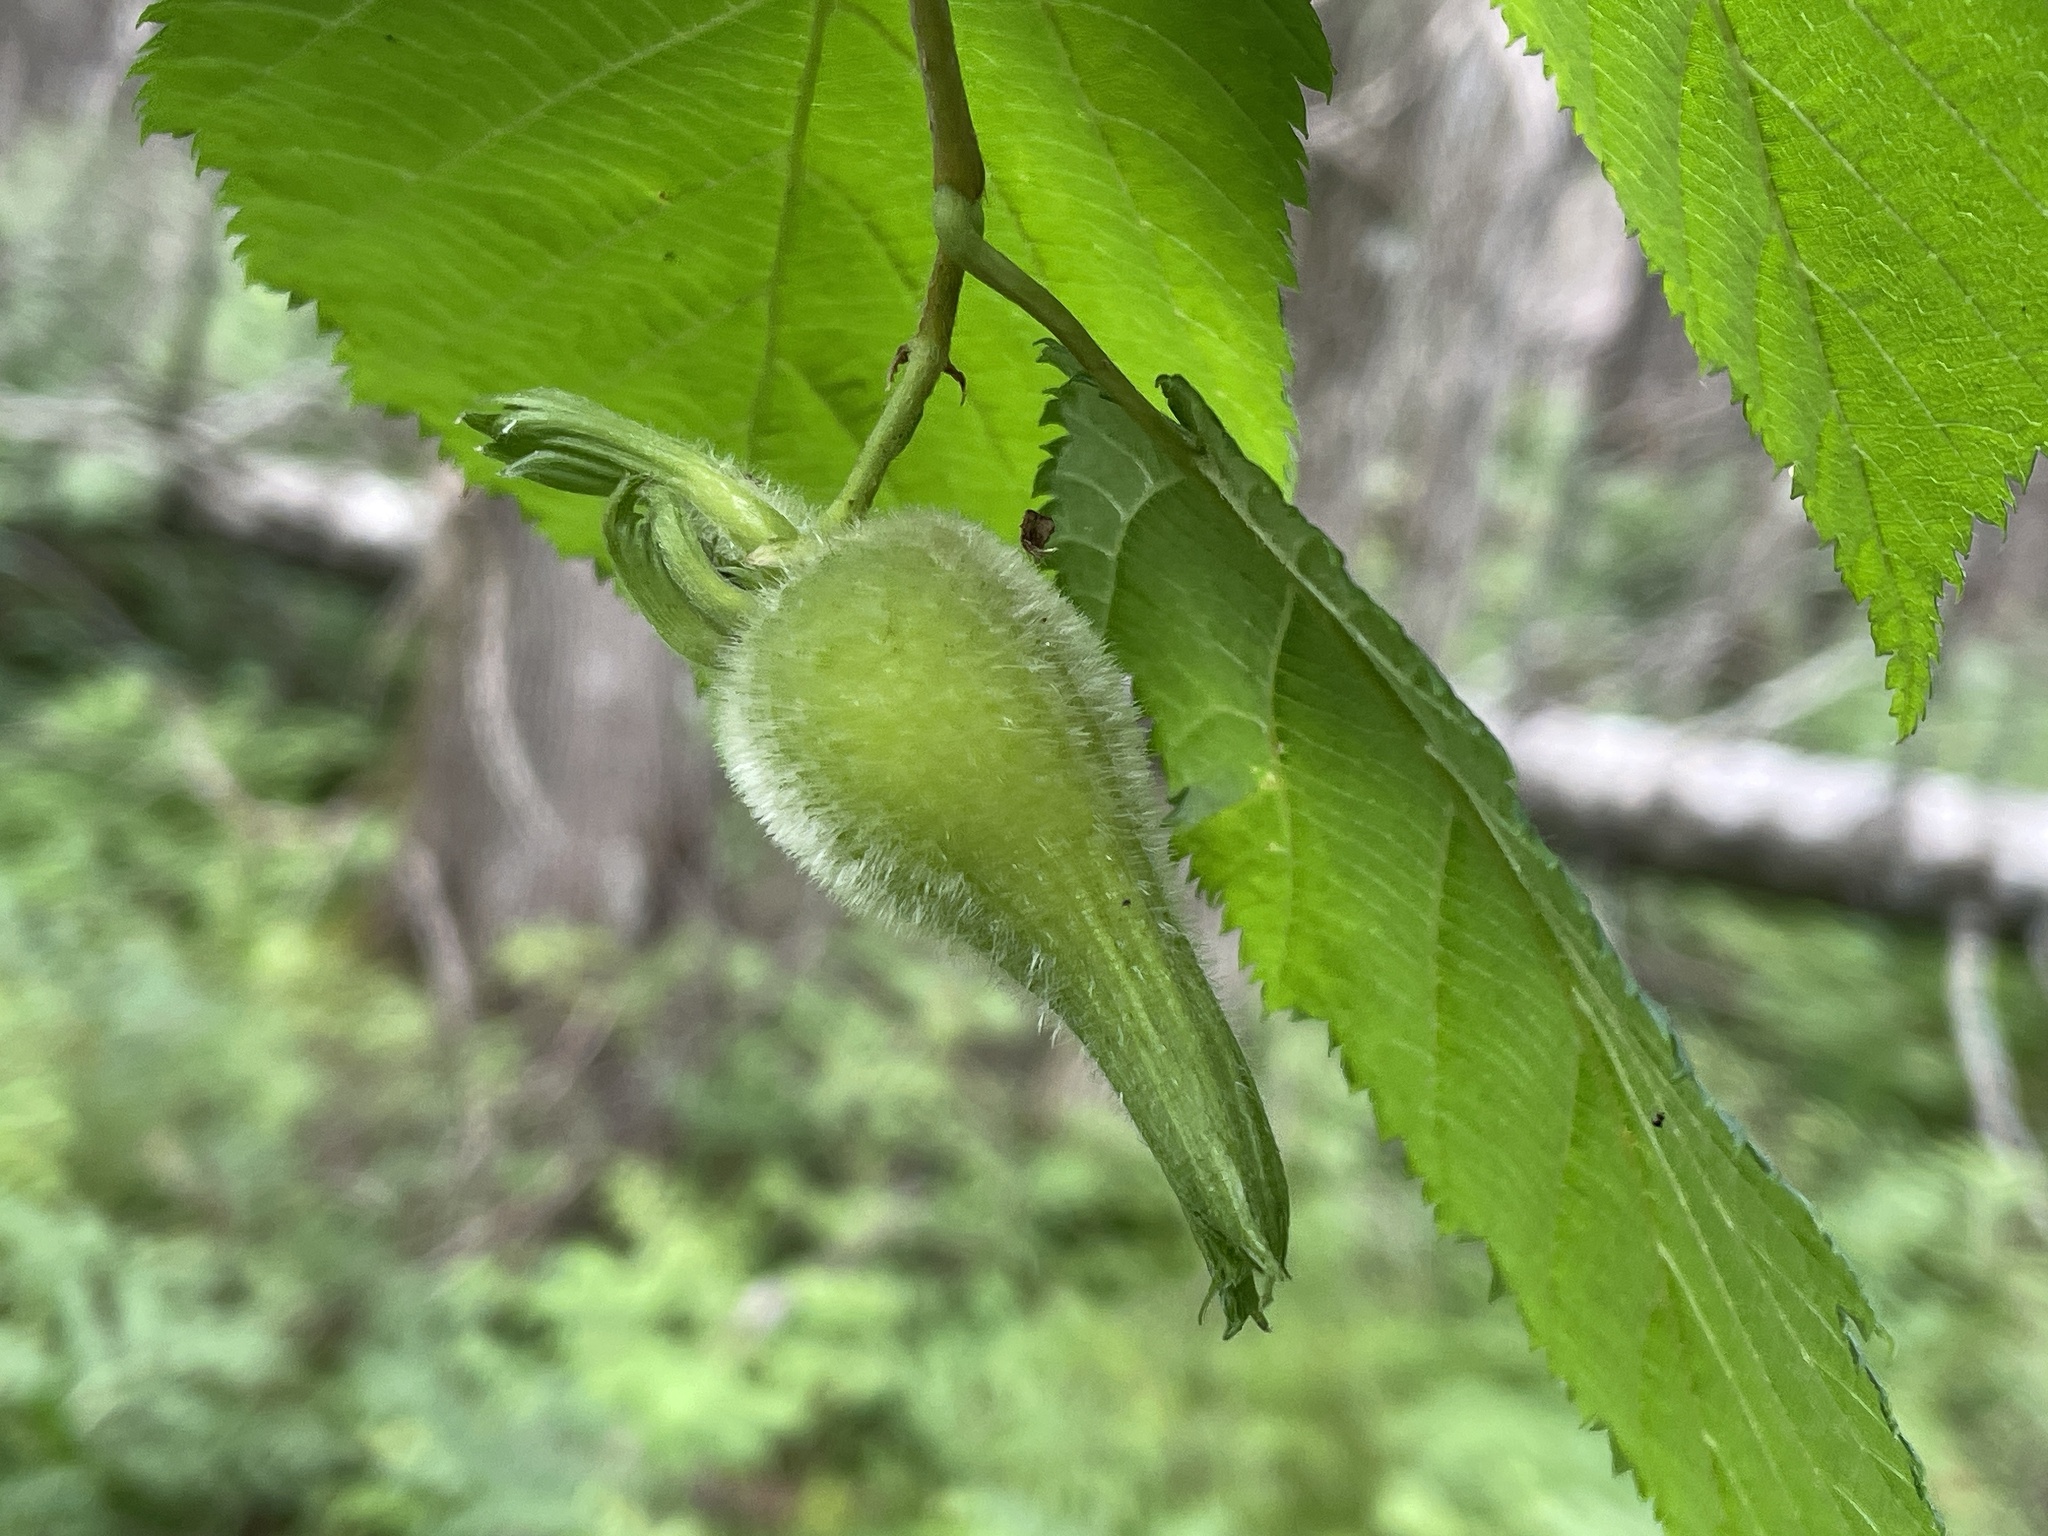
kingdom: Plantae
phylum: Tracheophyta
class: Magnoliopsida
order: Fagales
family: Betulaceae
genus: Corylus
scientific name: Corylus cornuta
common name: Beaked hazel
